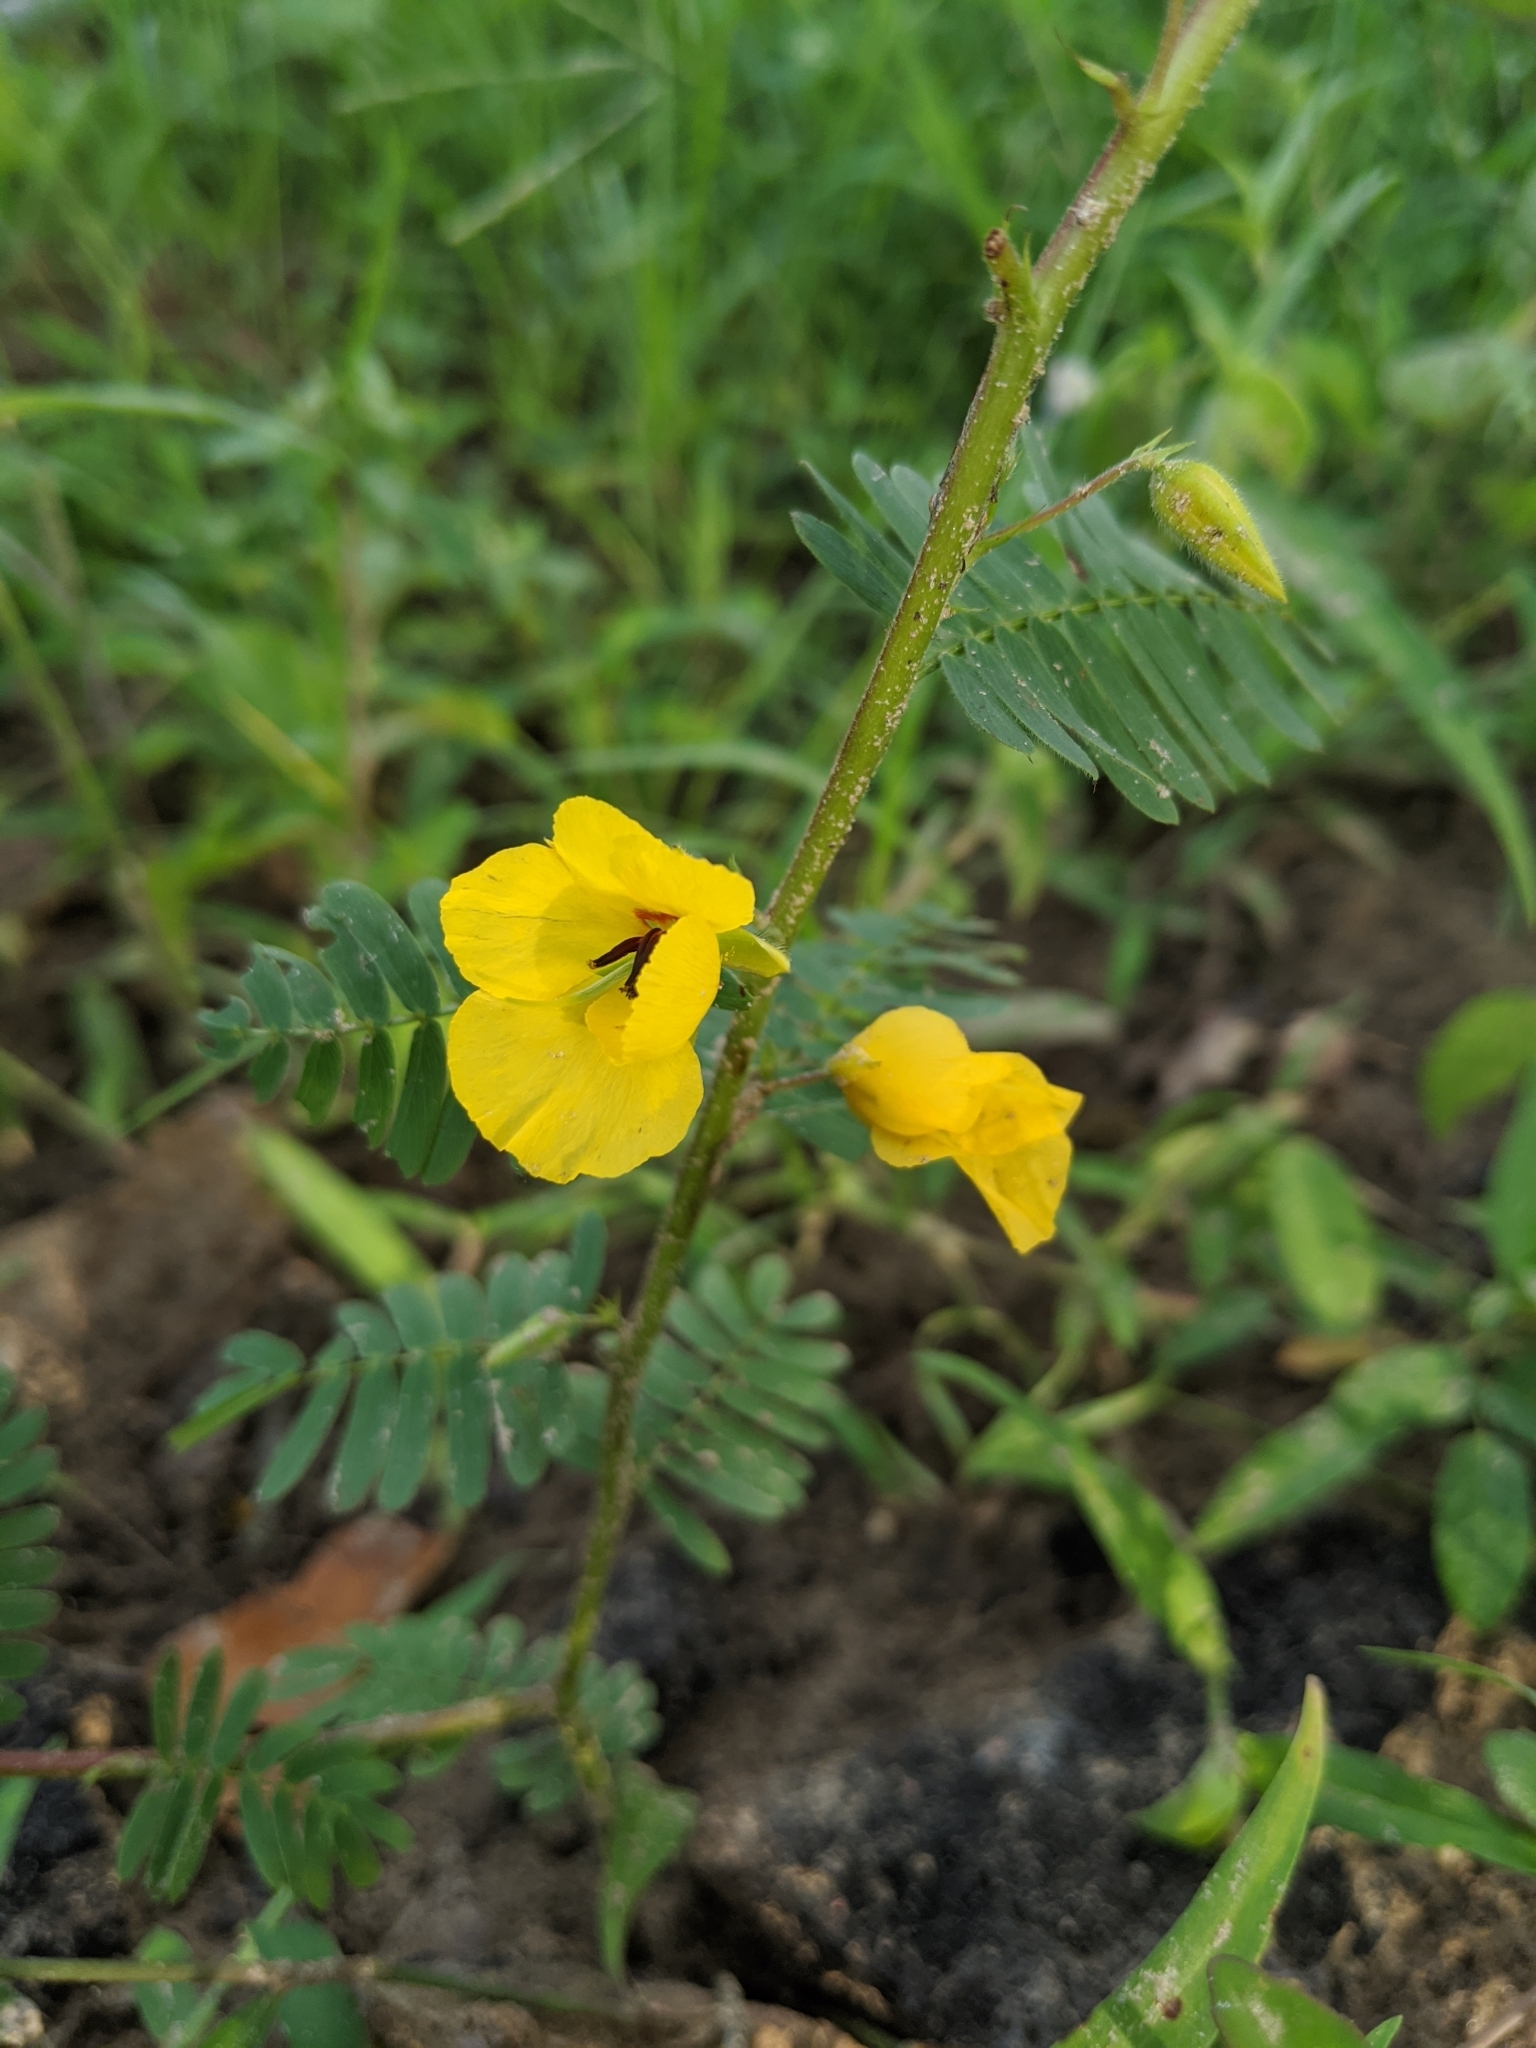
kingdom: Plantae
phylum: Tracheophyta
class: Magnoliopsida
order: Fabales
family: Fabaceae
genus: Chamaecrista
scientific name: Chamaecrista fasciculata
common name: Golden cassia
